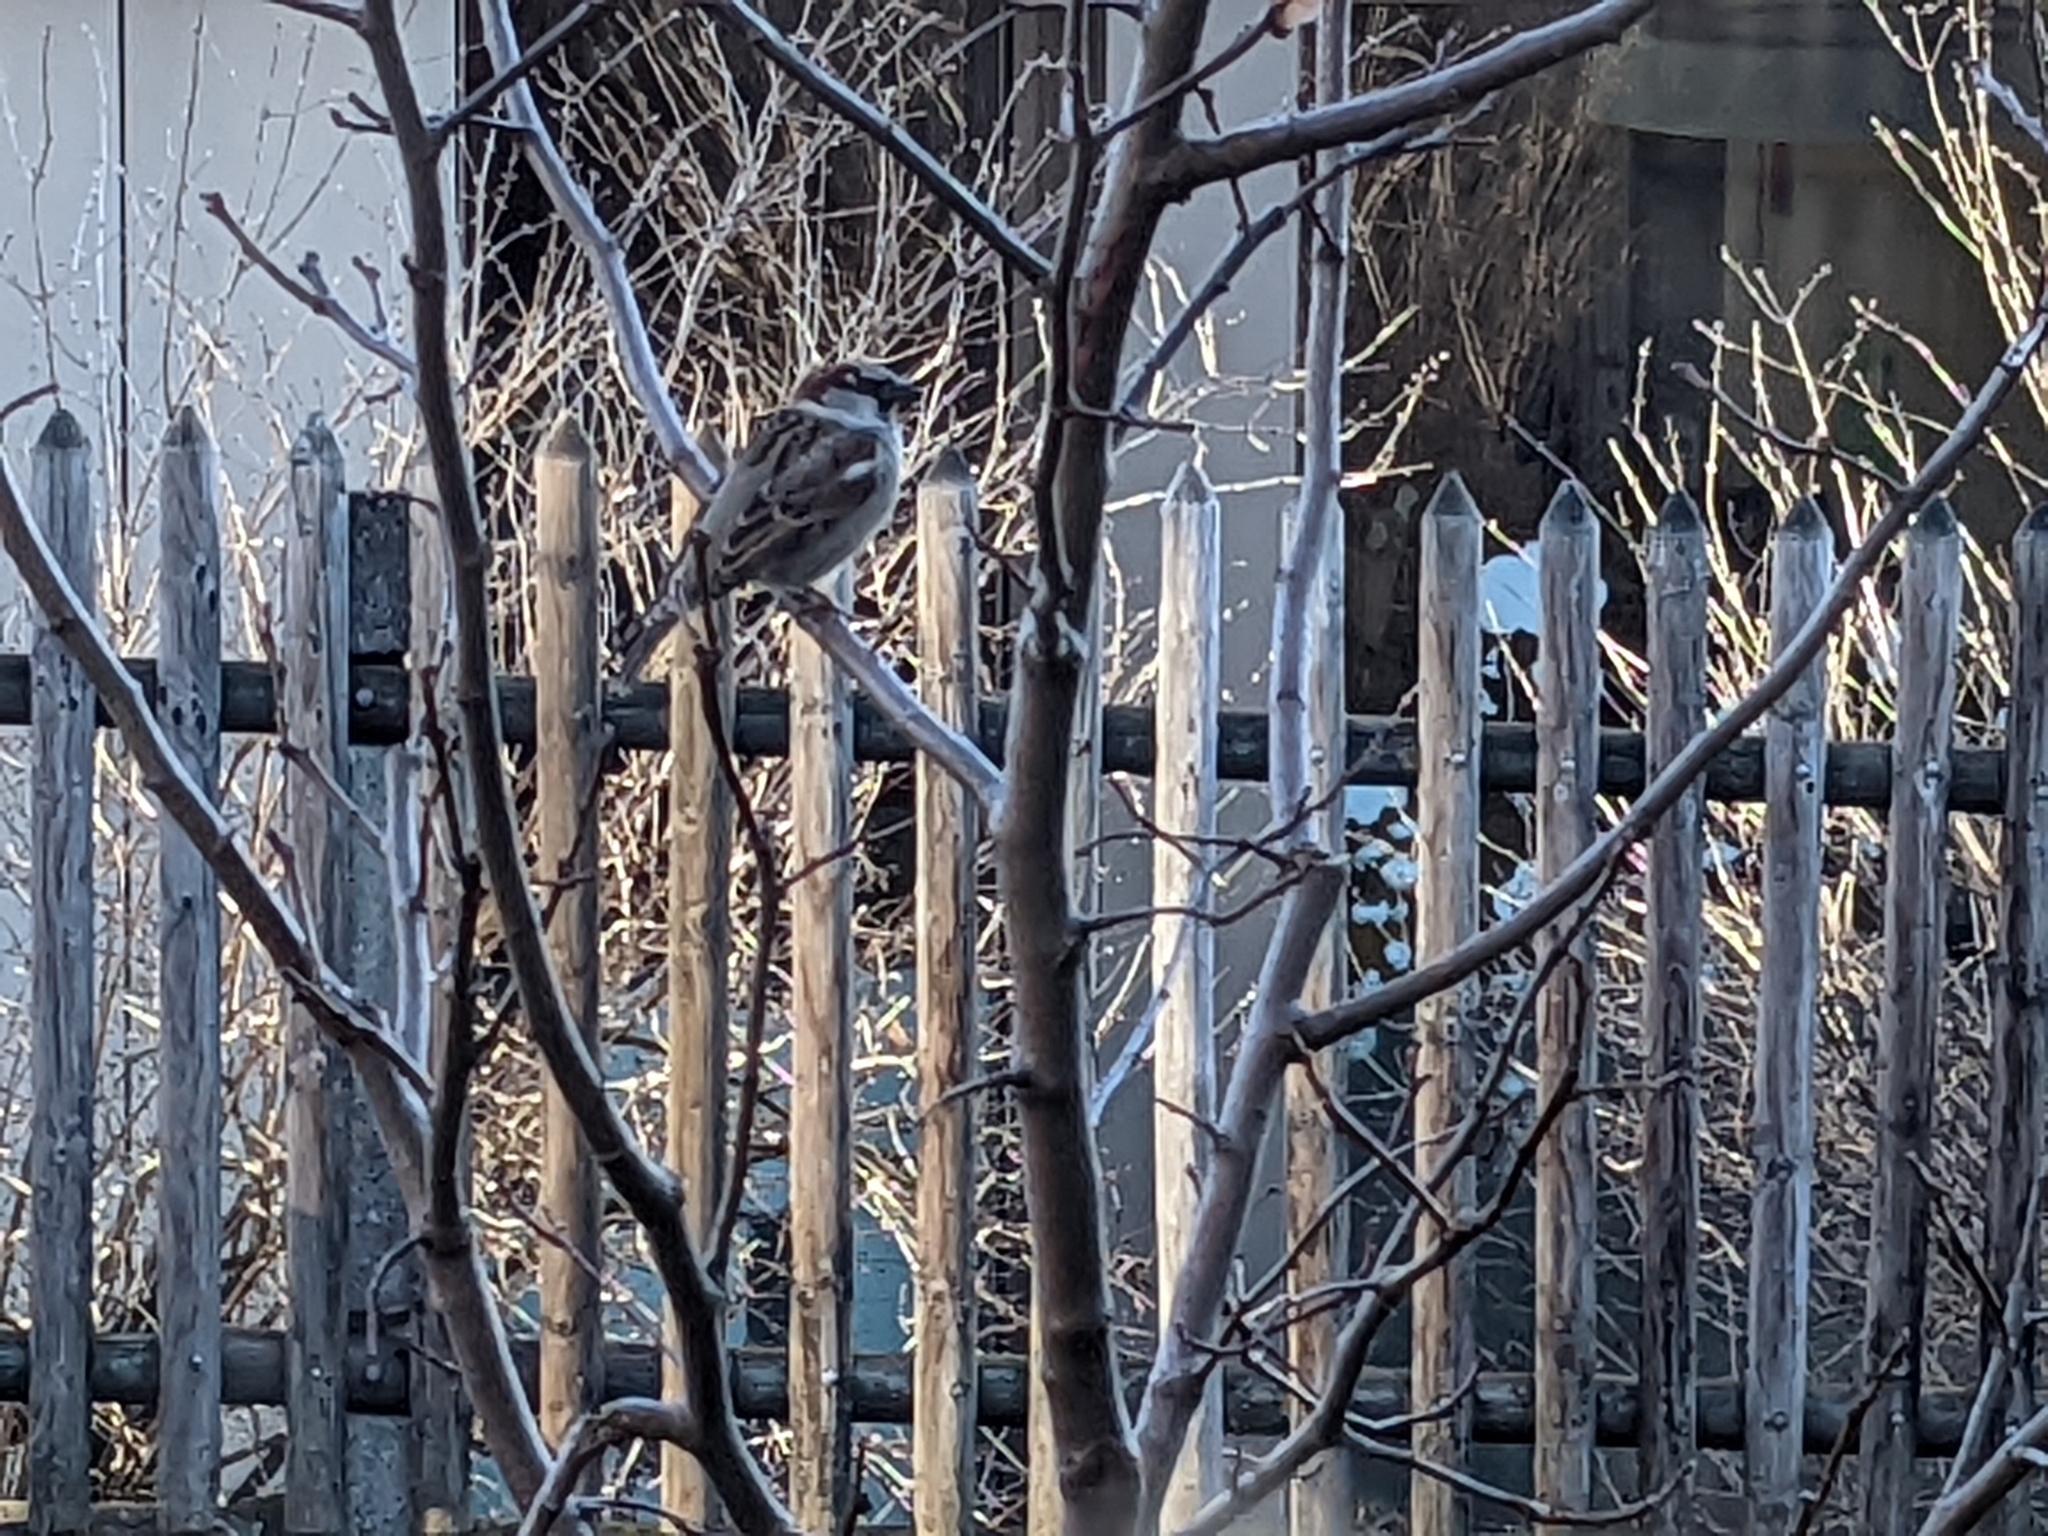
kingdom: Animalia
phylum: Chordata
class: Aves
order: Passeriformes
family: Passeridae
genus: Passer
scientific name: Passer domesticus
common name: House sparrow
